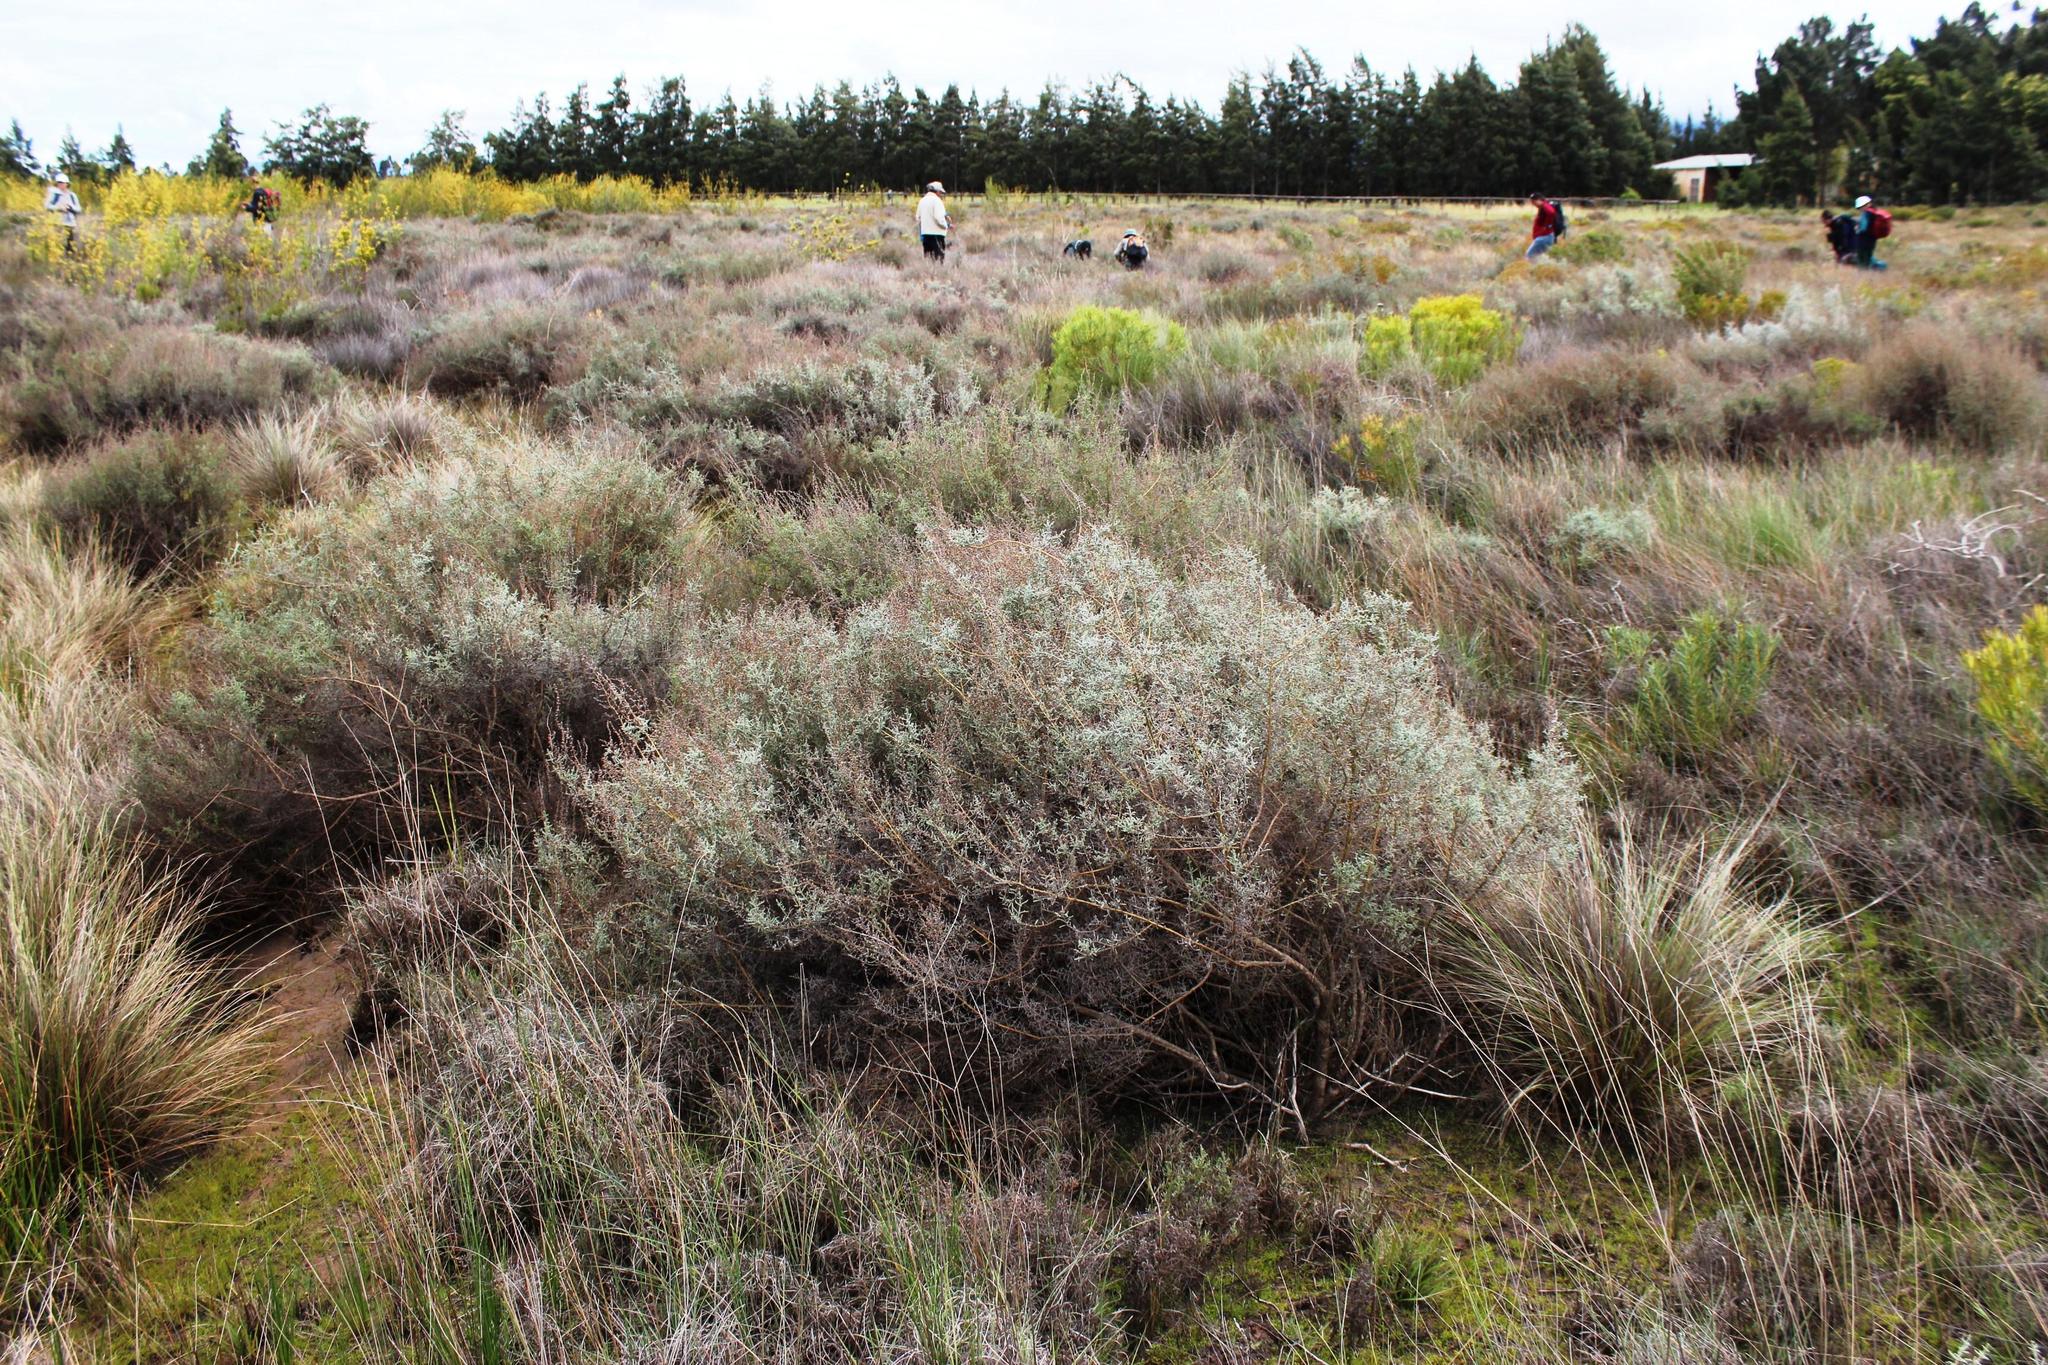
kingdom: Plantae
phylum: Tracheophyta
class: Magnoliopsida
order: Asterales
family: Asteraceae
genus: Seriphium
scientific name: Seriphium plumosum
